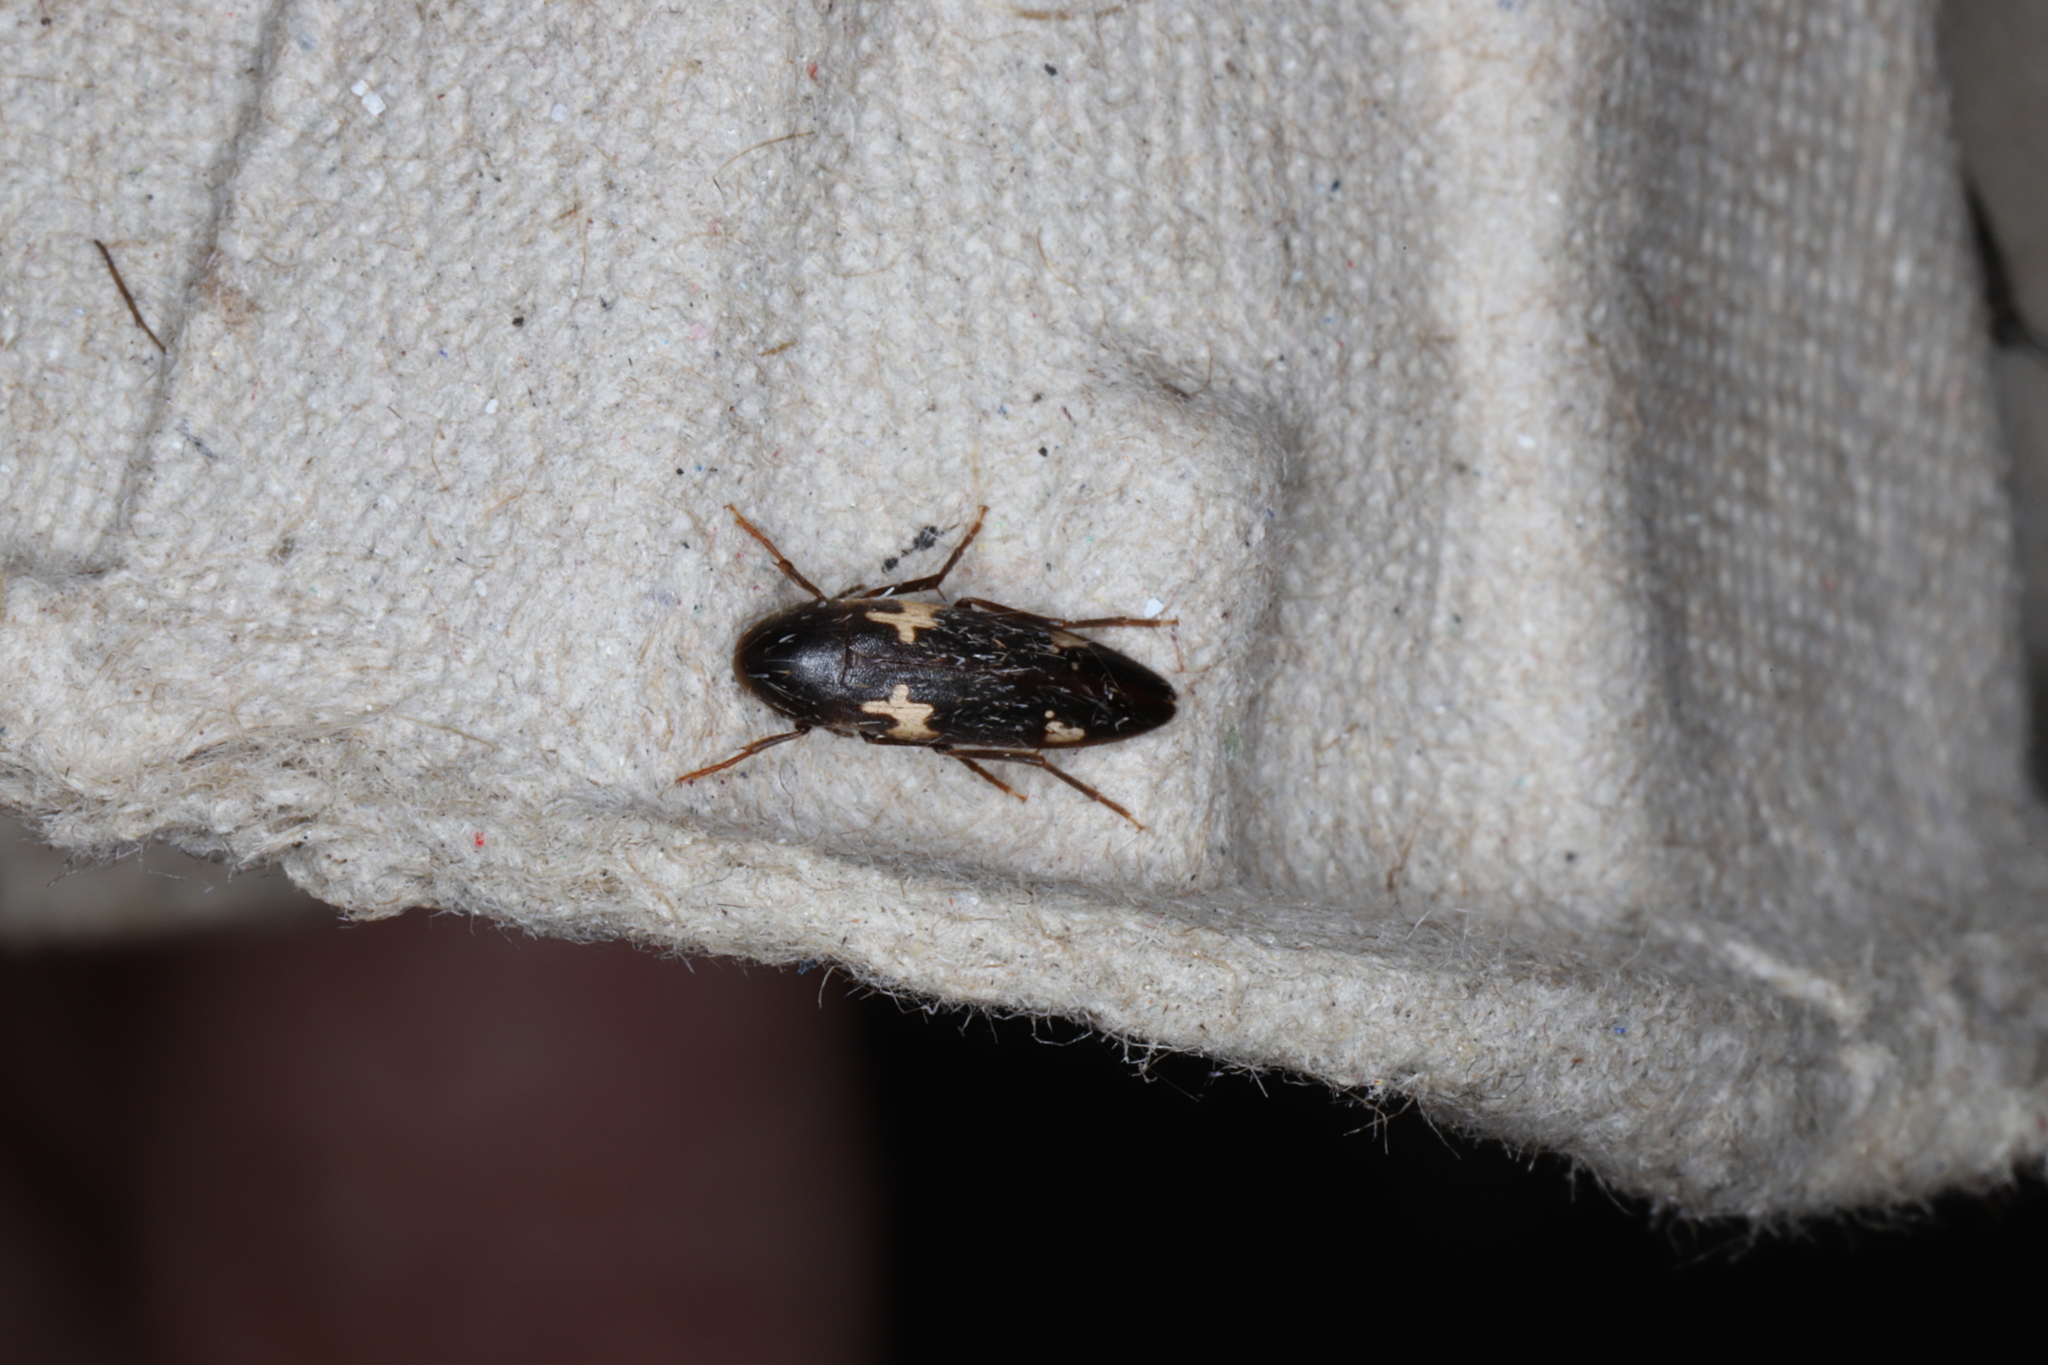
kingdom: Animalia
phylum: Arthropoda
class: Insecta
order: Coleoptera
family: Melandryidae
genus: Dircaea
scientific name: Dircaea liturata
